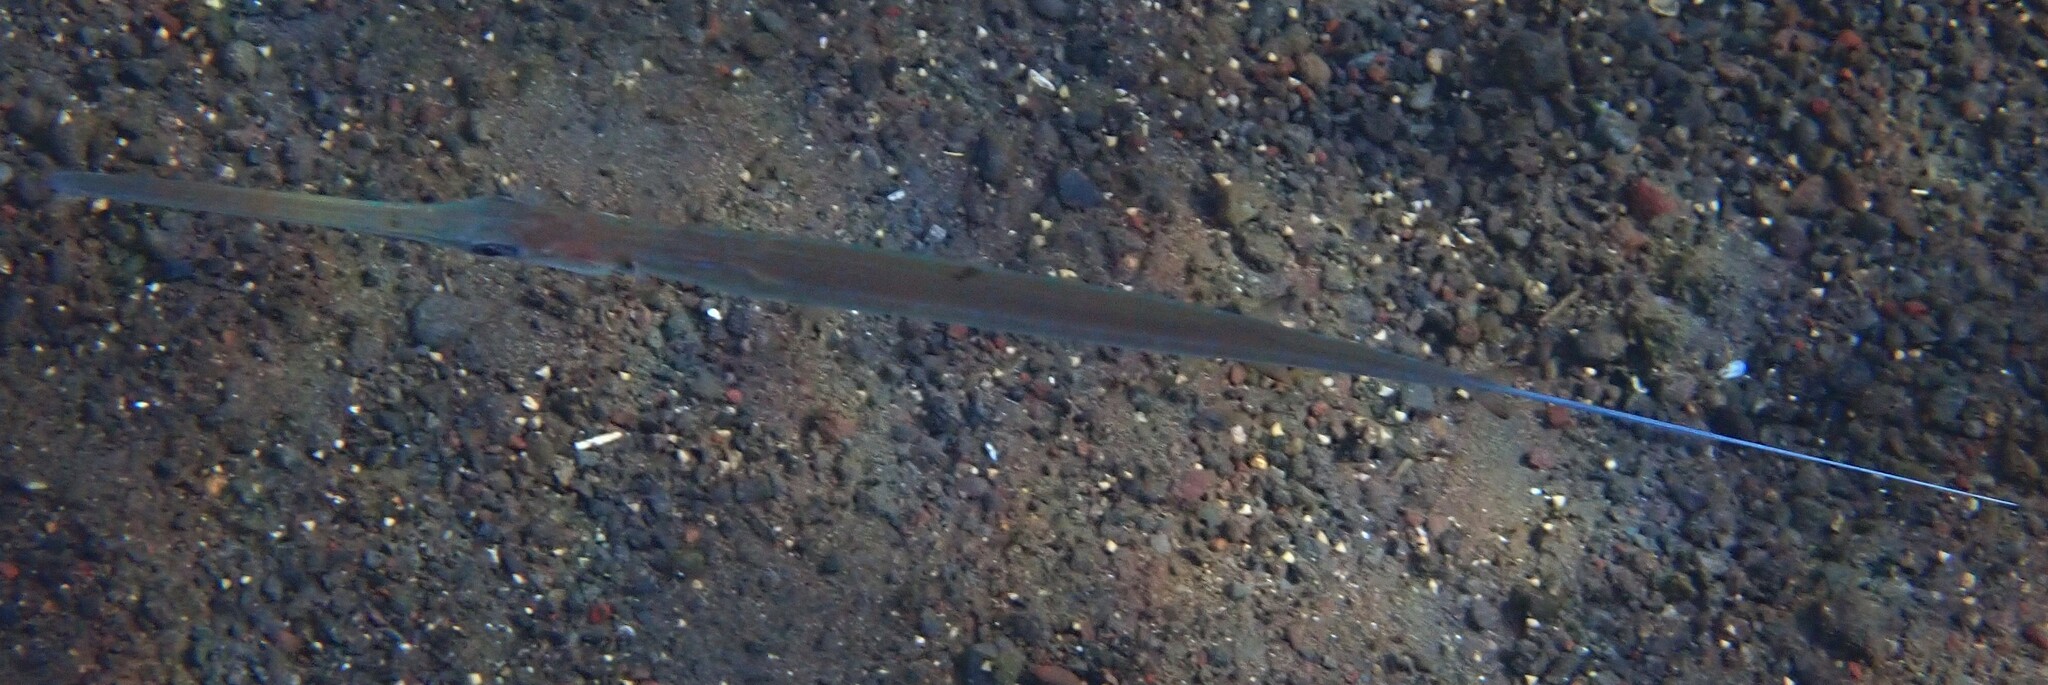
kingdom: Animalia
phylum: Chordata
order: Syngnathiformes
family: Fistulariidae
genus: Fistularia
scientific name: Fistularia commersonii
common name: Bluespotted cornetfish
